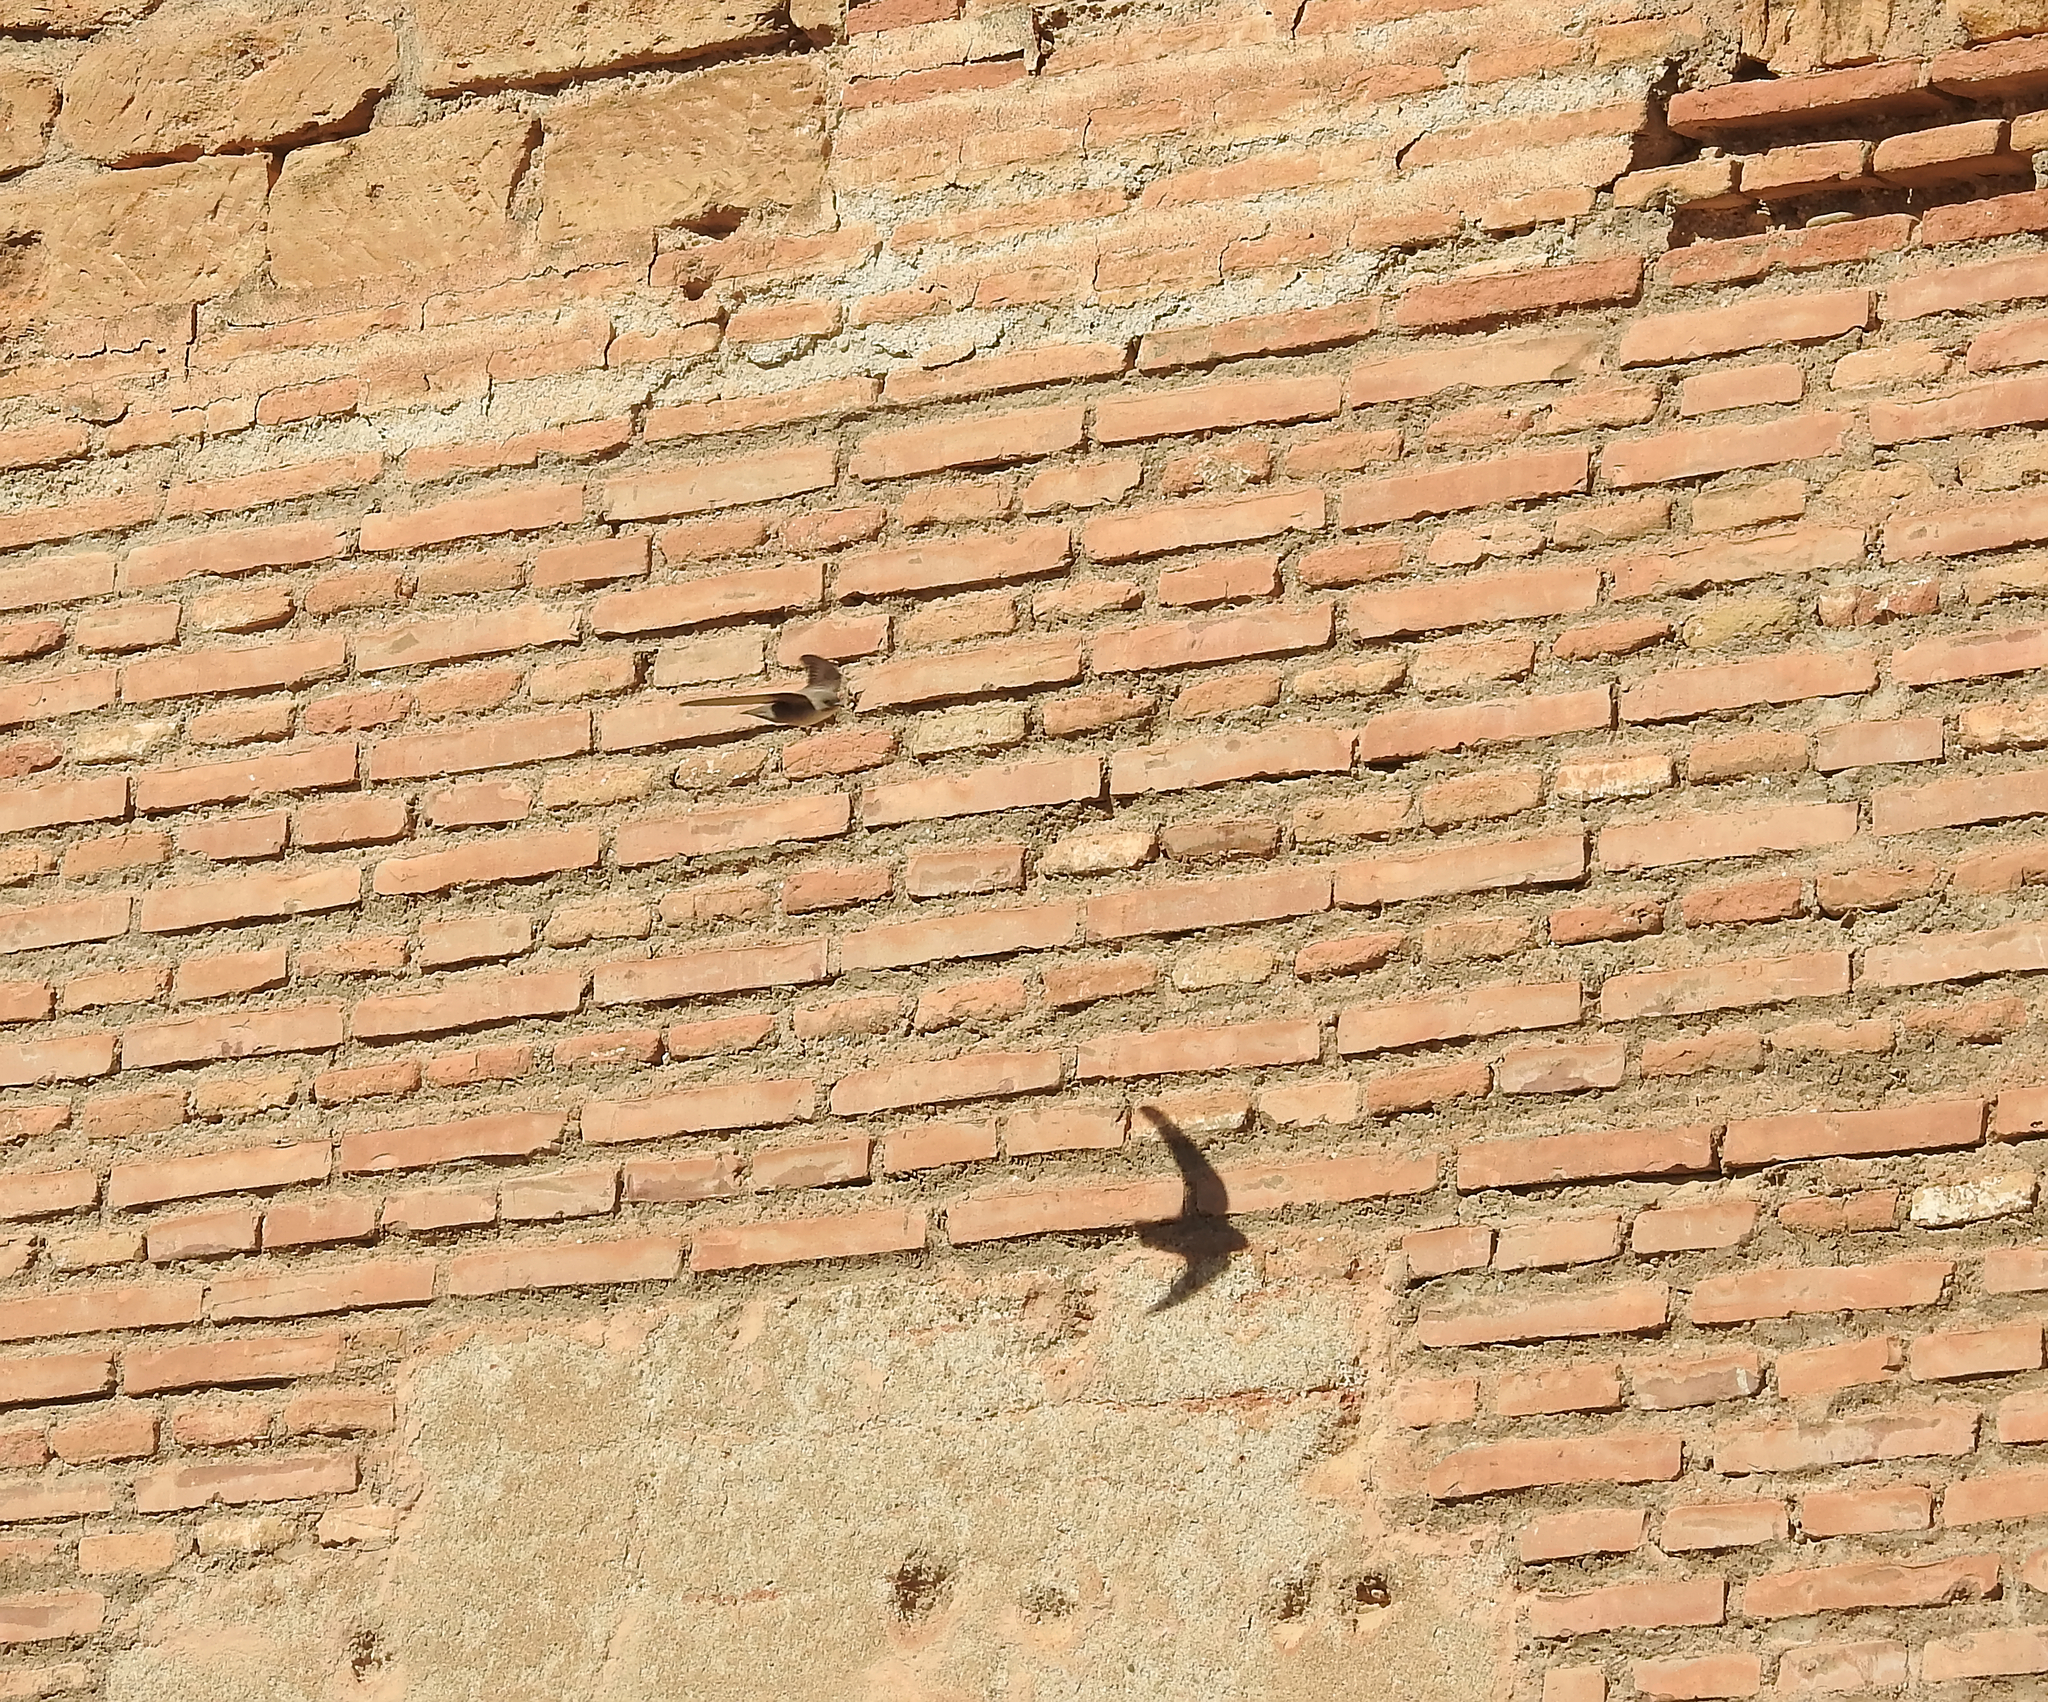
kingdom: Animalia
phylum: Chordata
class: Aves
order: Passeriformes
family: Hirundinidae
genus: Ptyonoprogne
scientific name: Ptyonoprogne rupestris
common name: Eurasian crag martin
